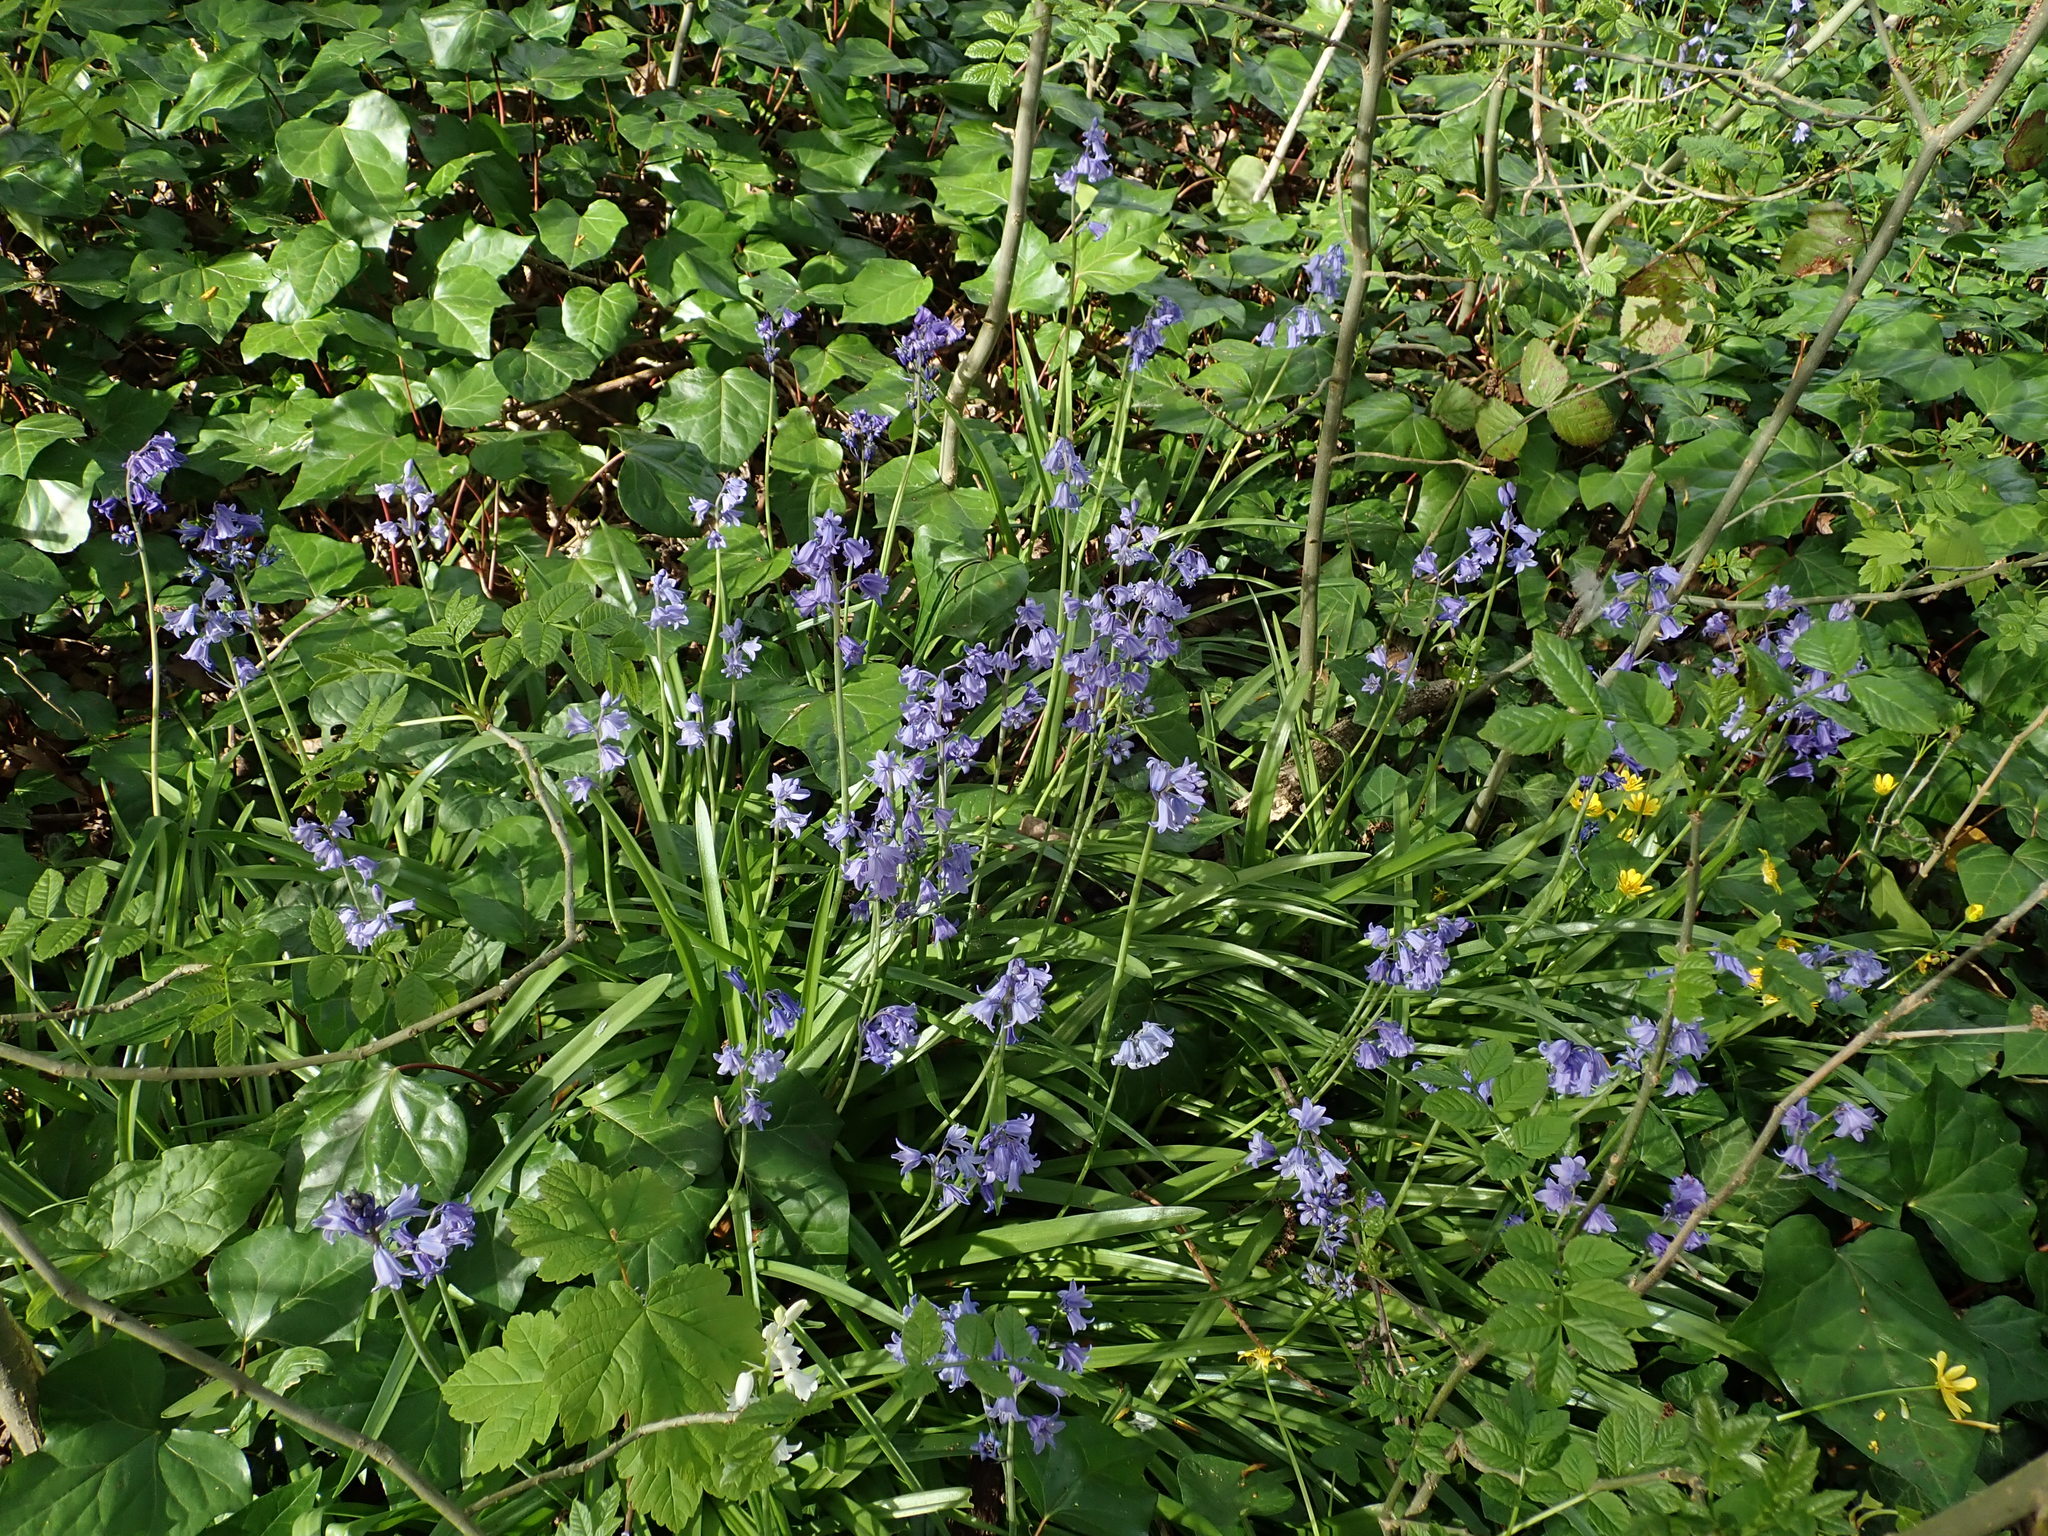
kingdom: Plantae
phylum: Tracheophyta
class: Liliopsida
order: Asparagales
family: Asparagaceae
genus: Hyacinthoides
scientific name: Hyacinthoides massartiana
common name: Hyacinthoides
